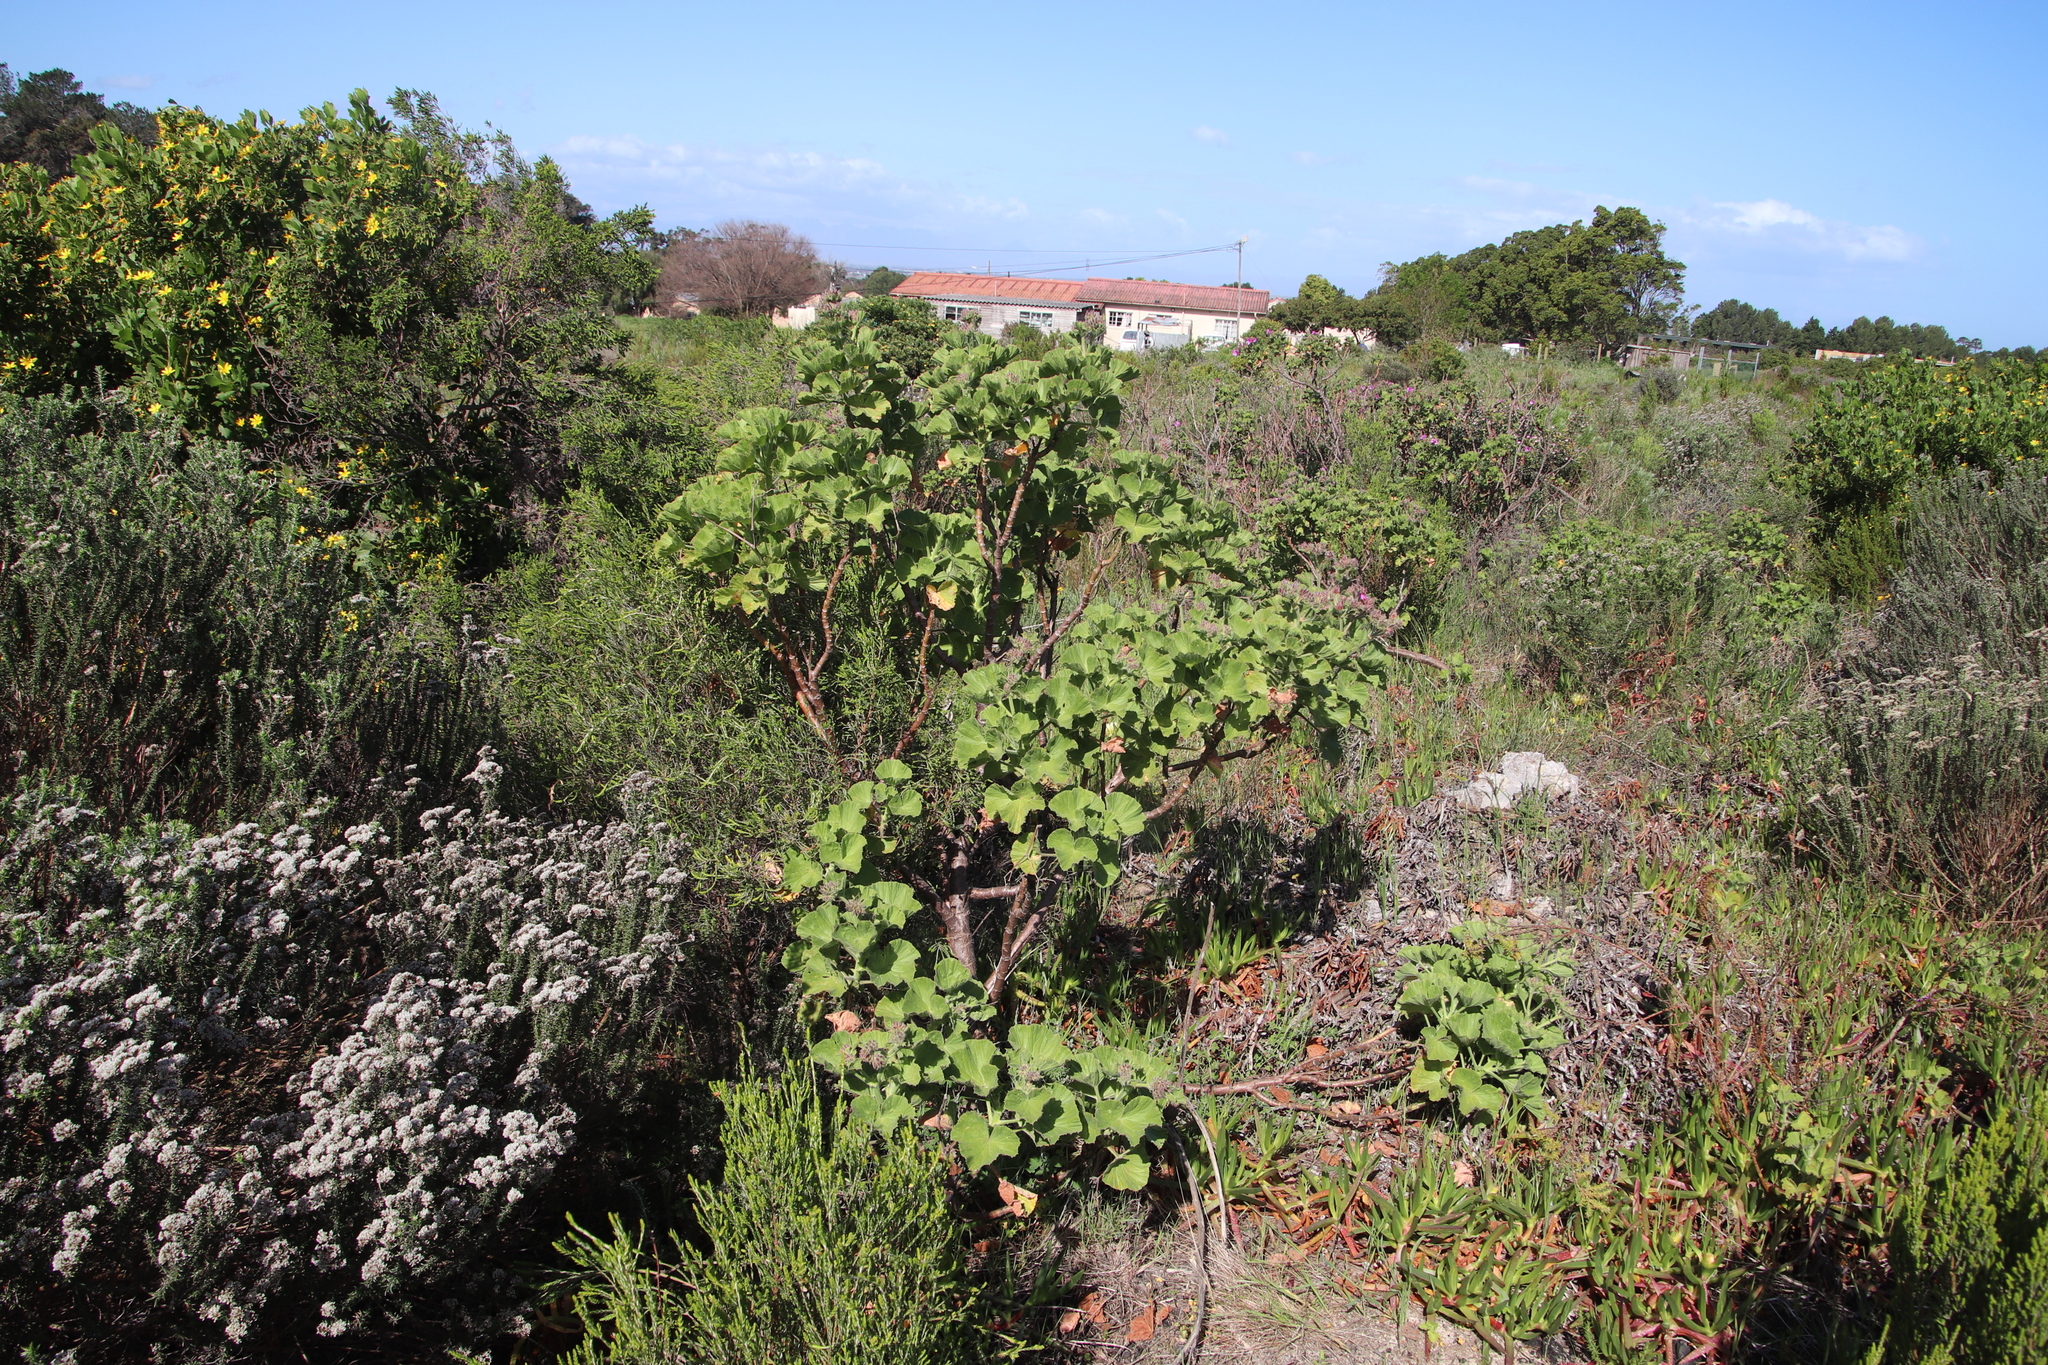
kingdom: Plantae
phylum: Tracheophyta
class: Magnoliopsida
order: Geraniales
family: Geraniaceae
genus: Pelargonium
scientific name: Pelargonium cucullatum
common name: Tree pelargonium
